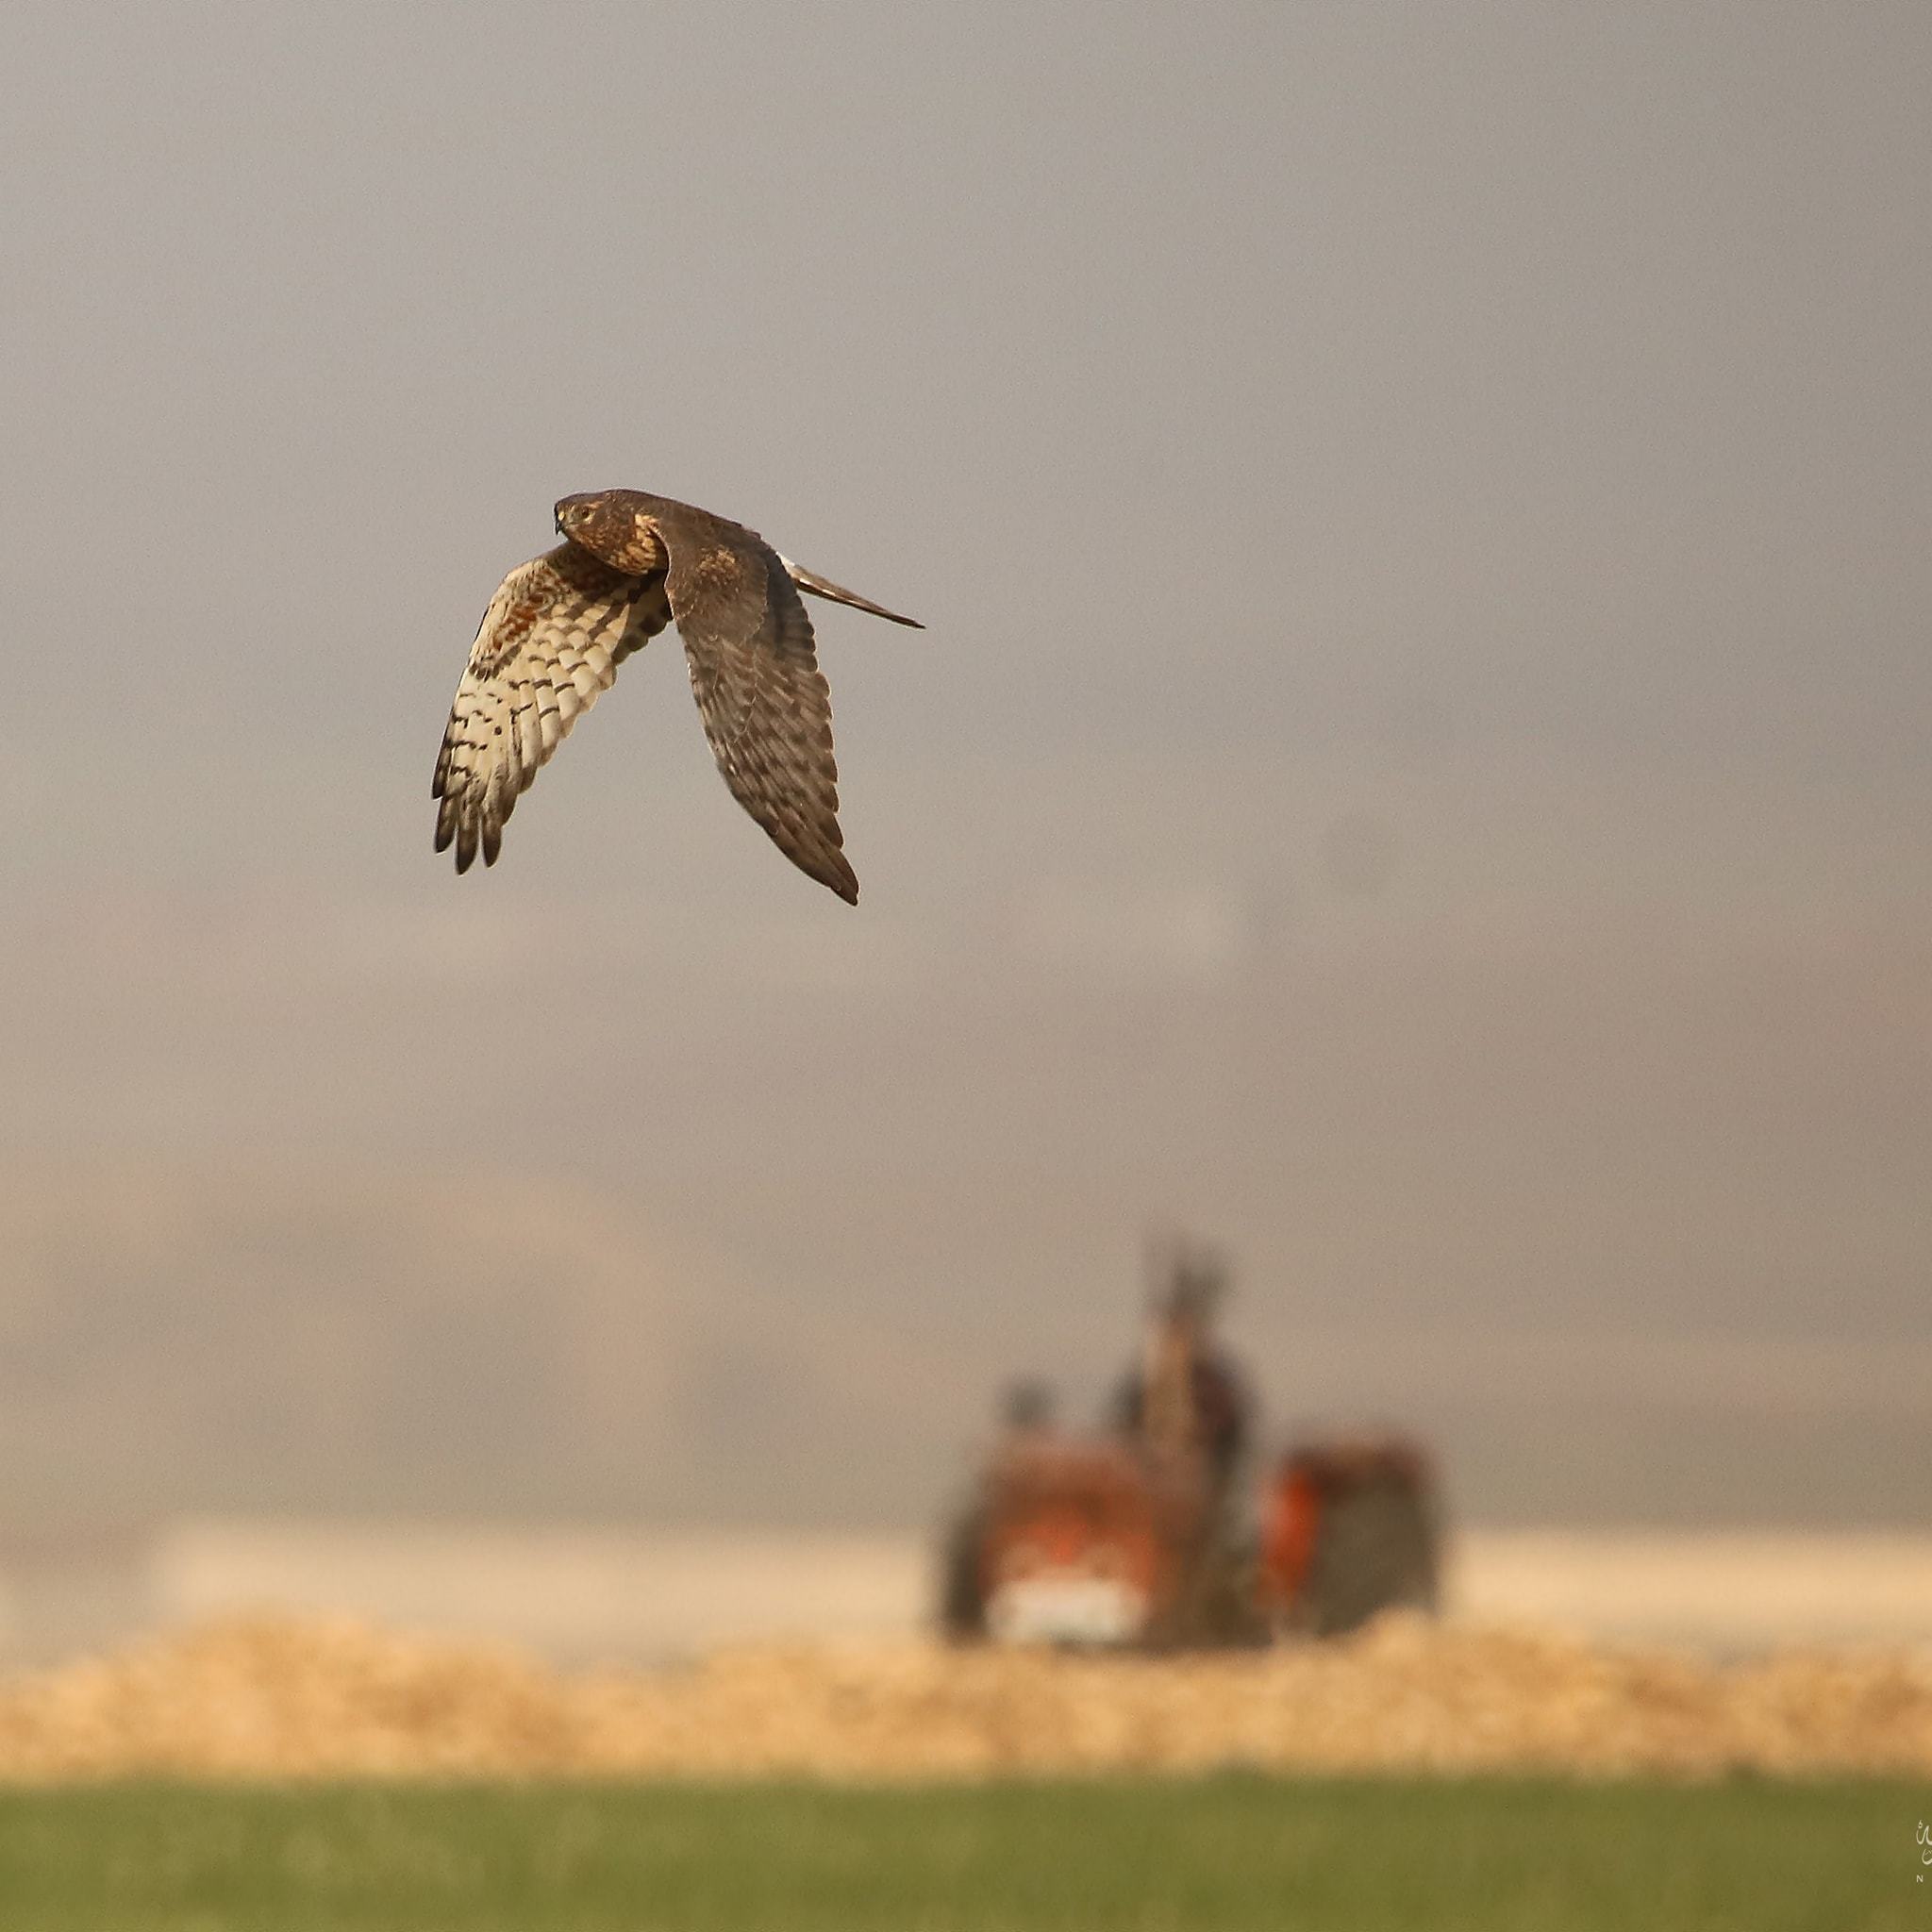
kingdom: Animalia
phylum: Chordata
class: Aves
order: Accipitriformes
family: Accipitridae
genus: Circus
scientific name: Circus pygargus
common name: Montagu's harrier
